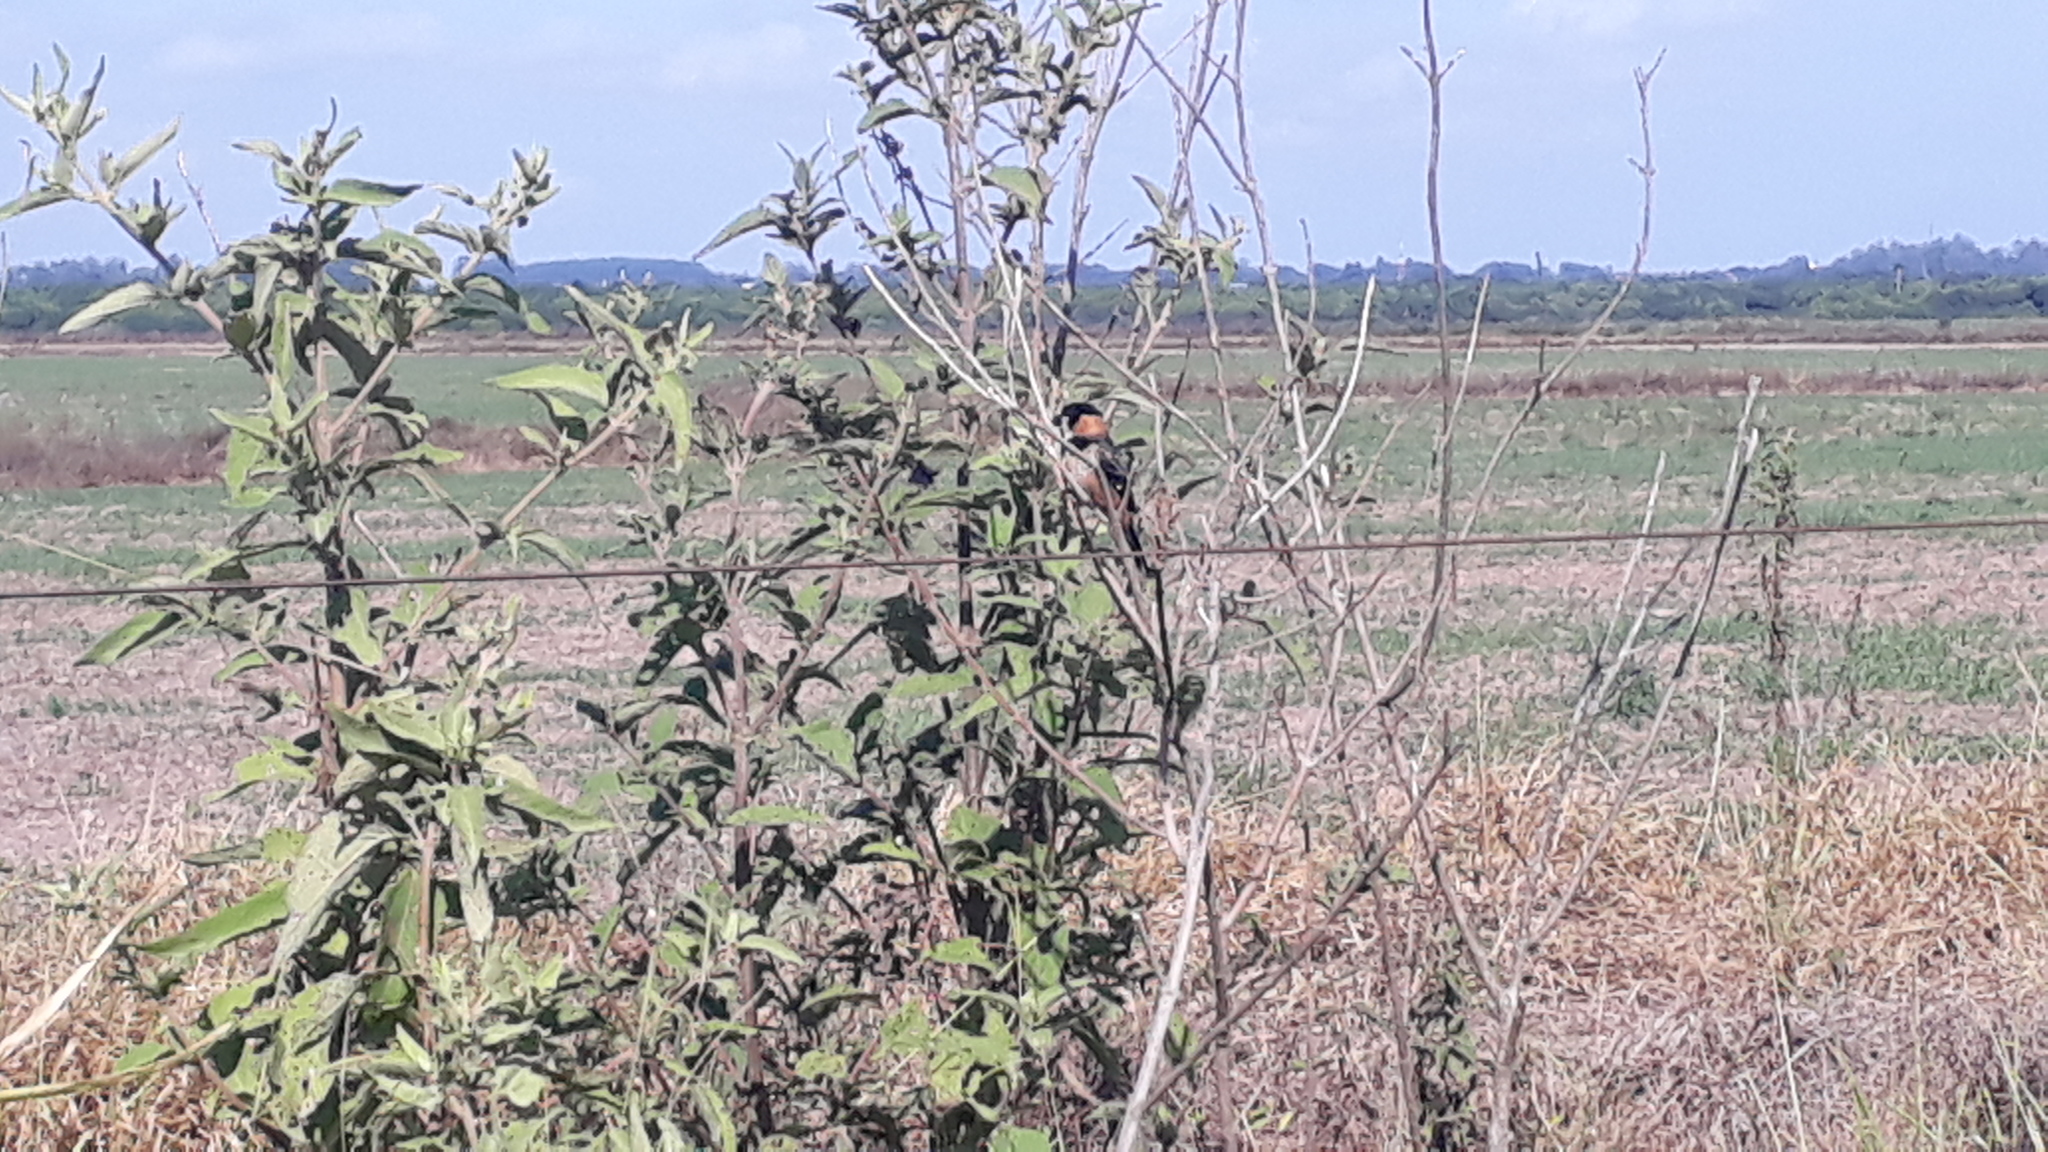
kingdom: Animalia
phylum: Chordata
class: Aves
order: Passeriformes
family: Thraupidae
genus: Sporophila
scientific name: Sporophila collaris
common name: Rusty-collared seedeater
